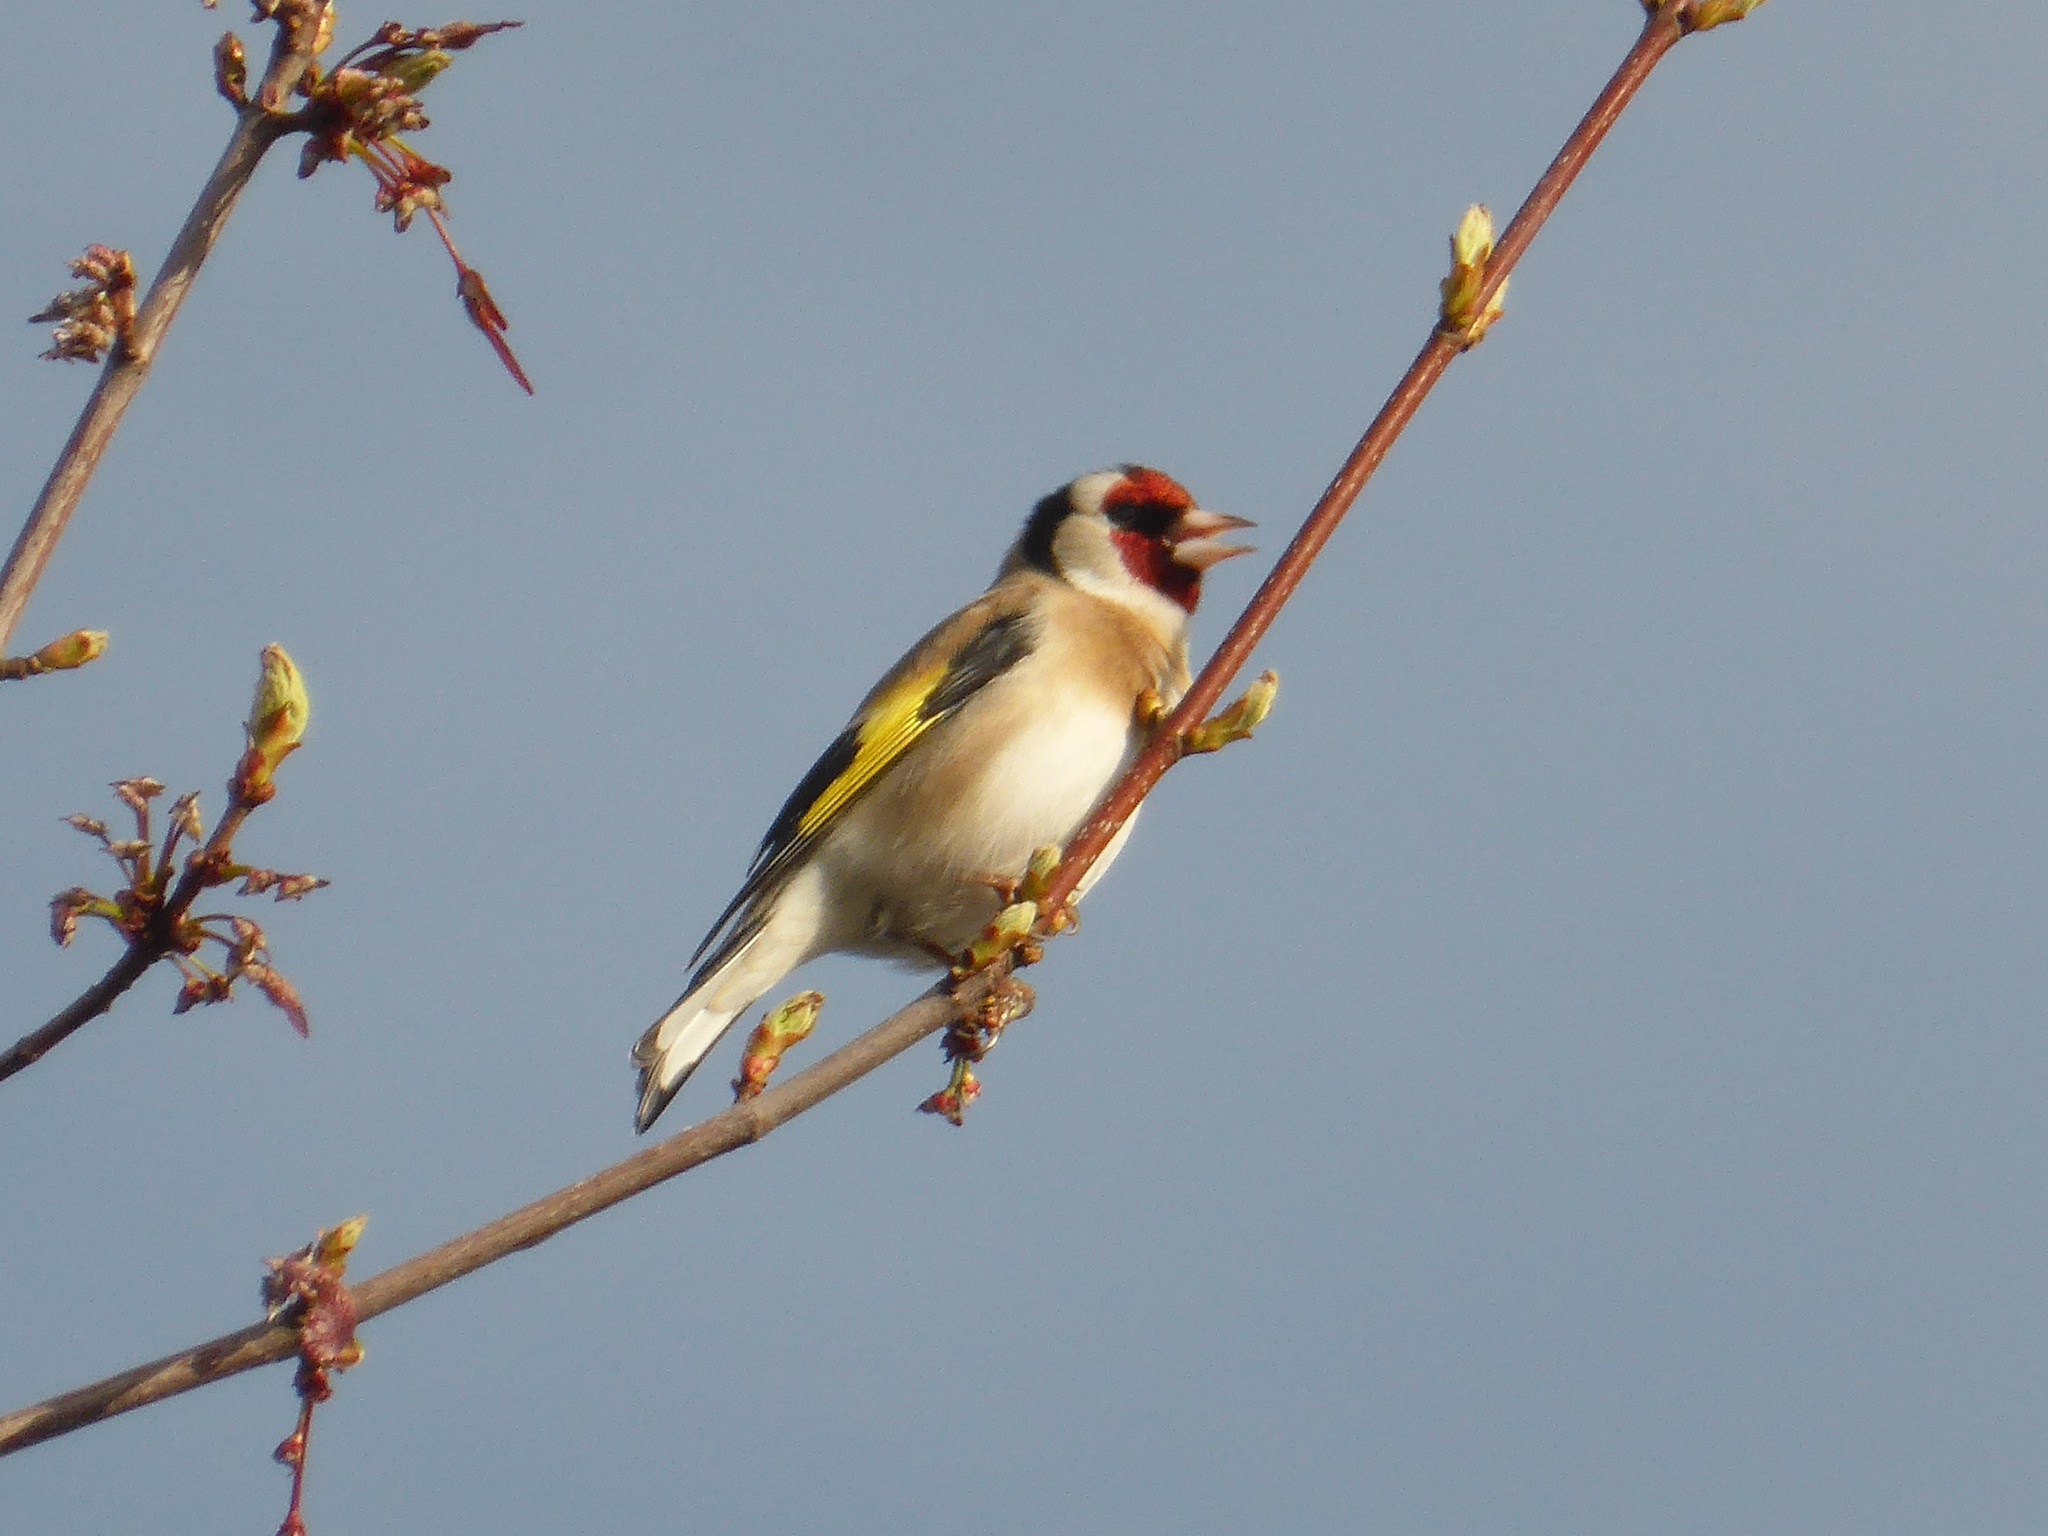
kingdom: Animalia
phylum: Chordata
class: Aves
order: Passeriformes
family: Fringillidae
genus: Carduelis
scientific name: Carduelis carduelis
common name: European goldfinch
